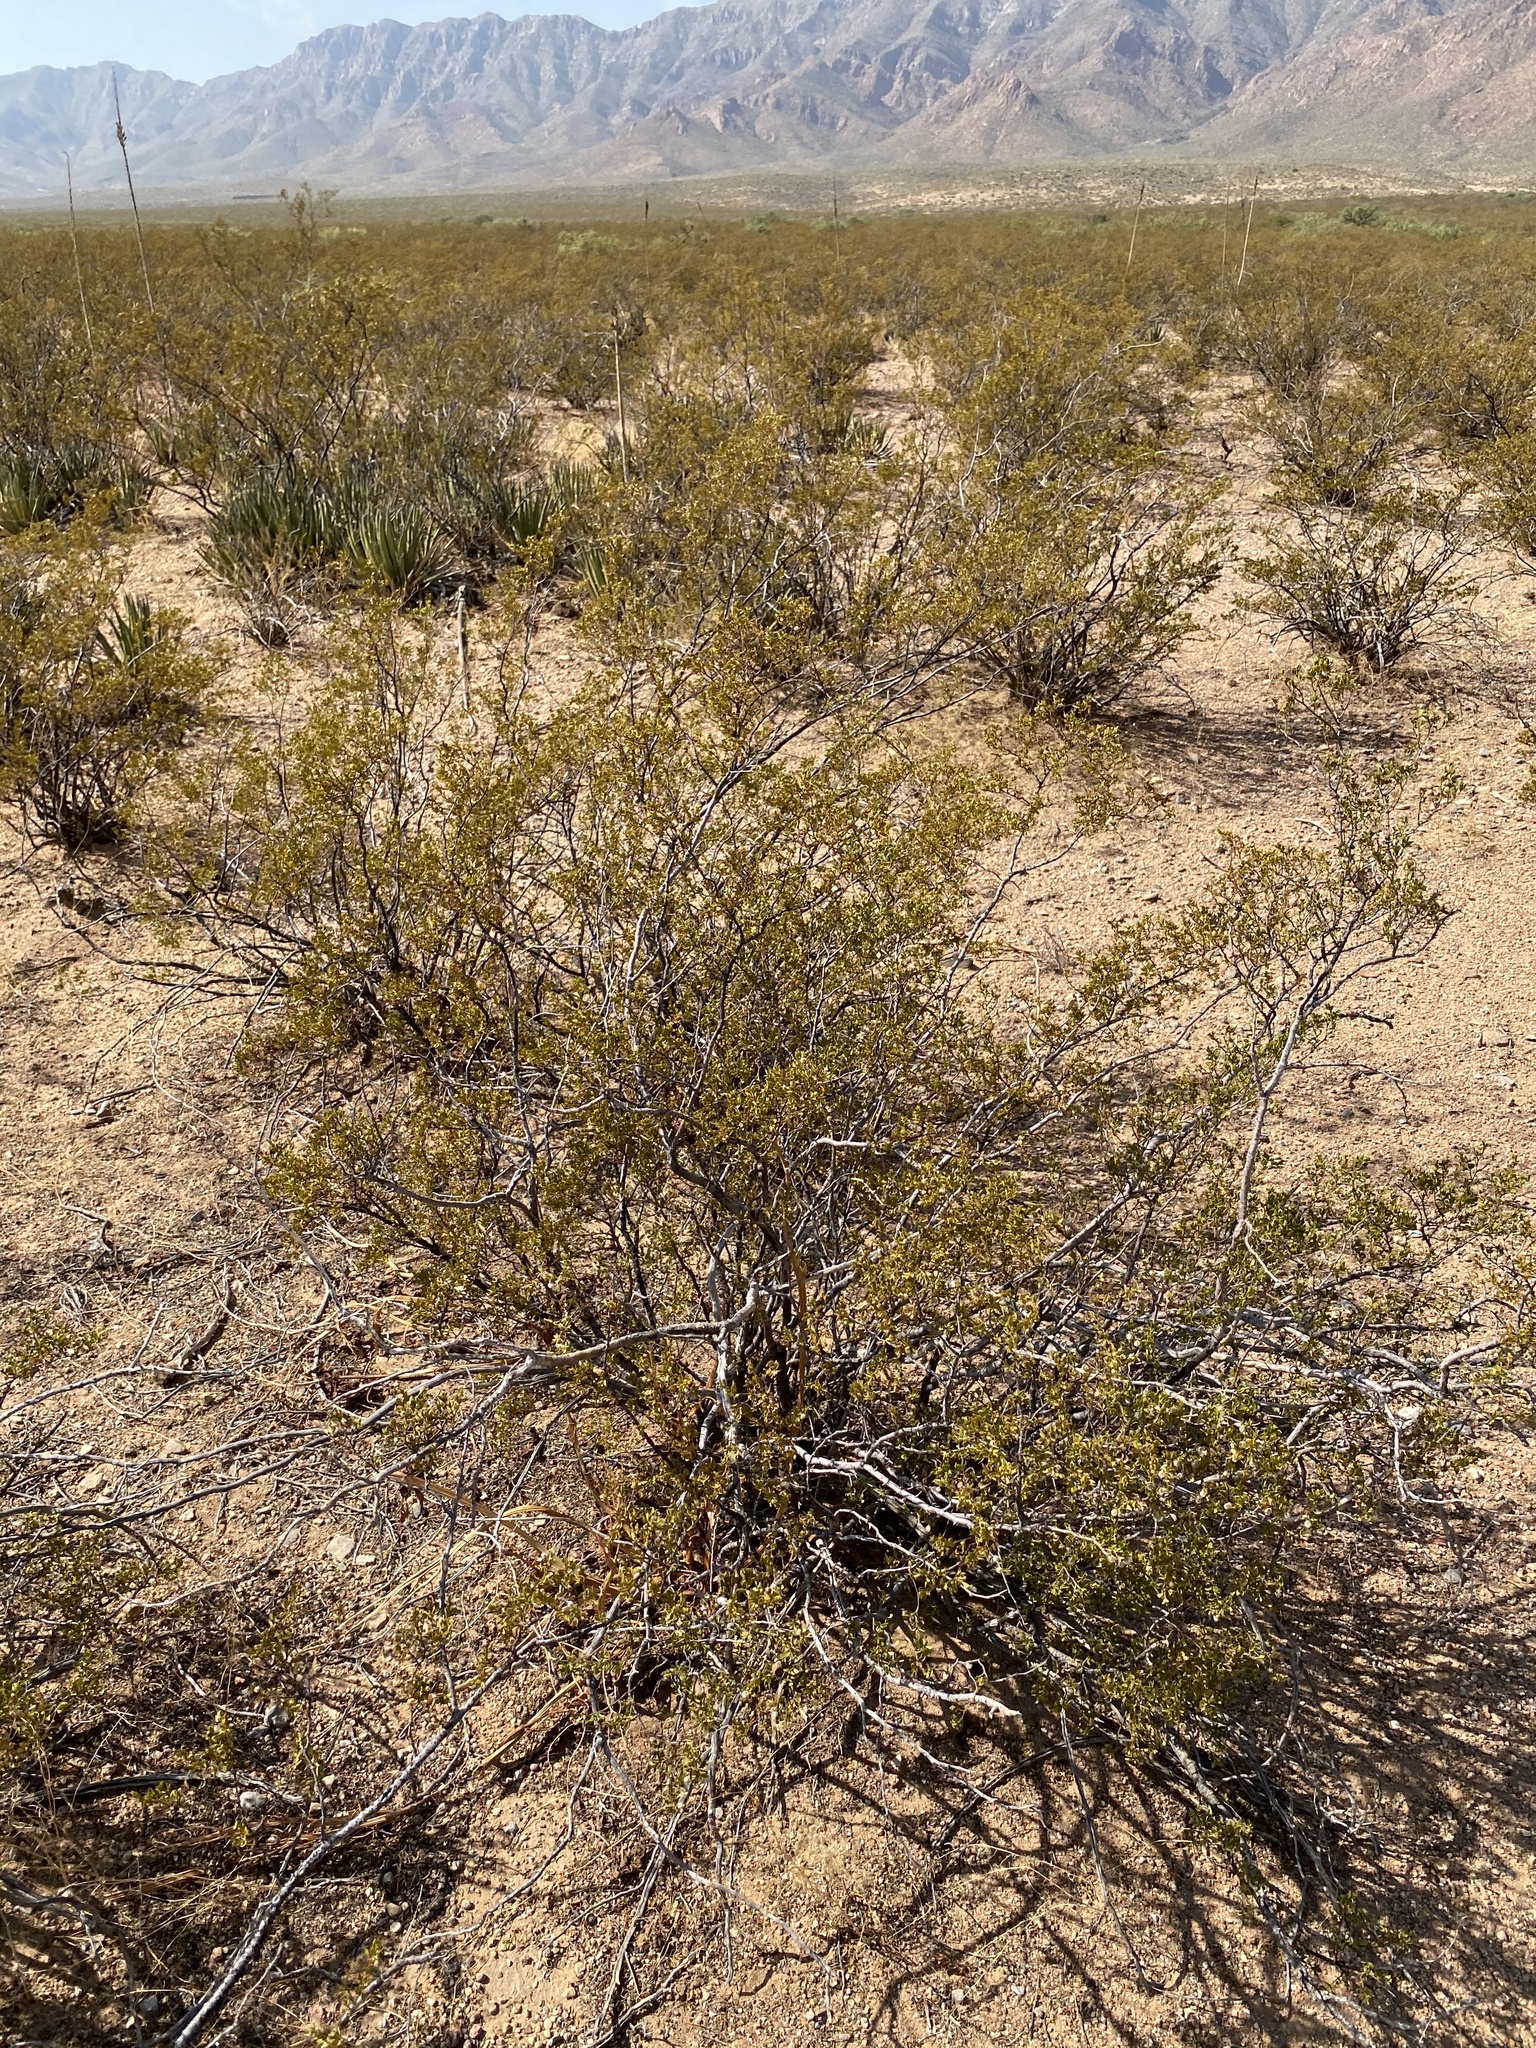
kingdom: Plantae
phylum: Tracheophyta
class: Magnoliopsida
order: Zygophyllales
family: Zygophyllaceae
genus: Larrea
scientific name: Larrea tridentata
